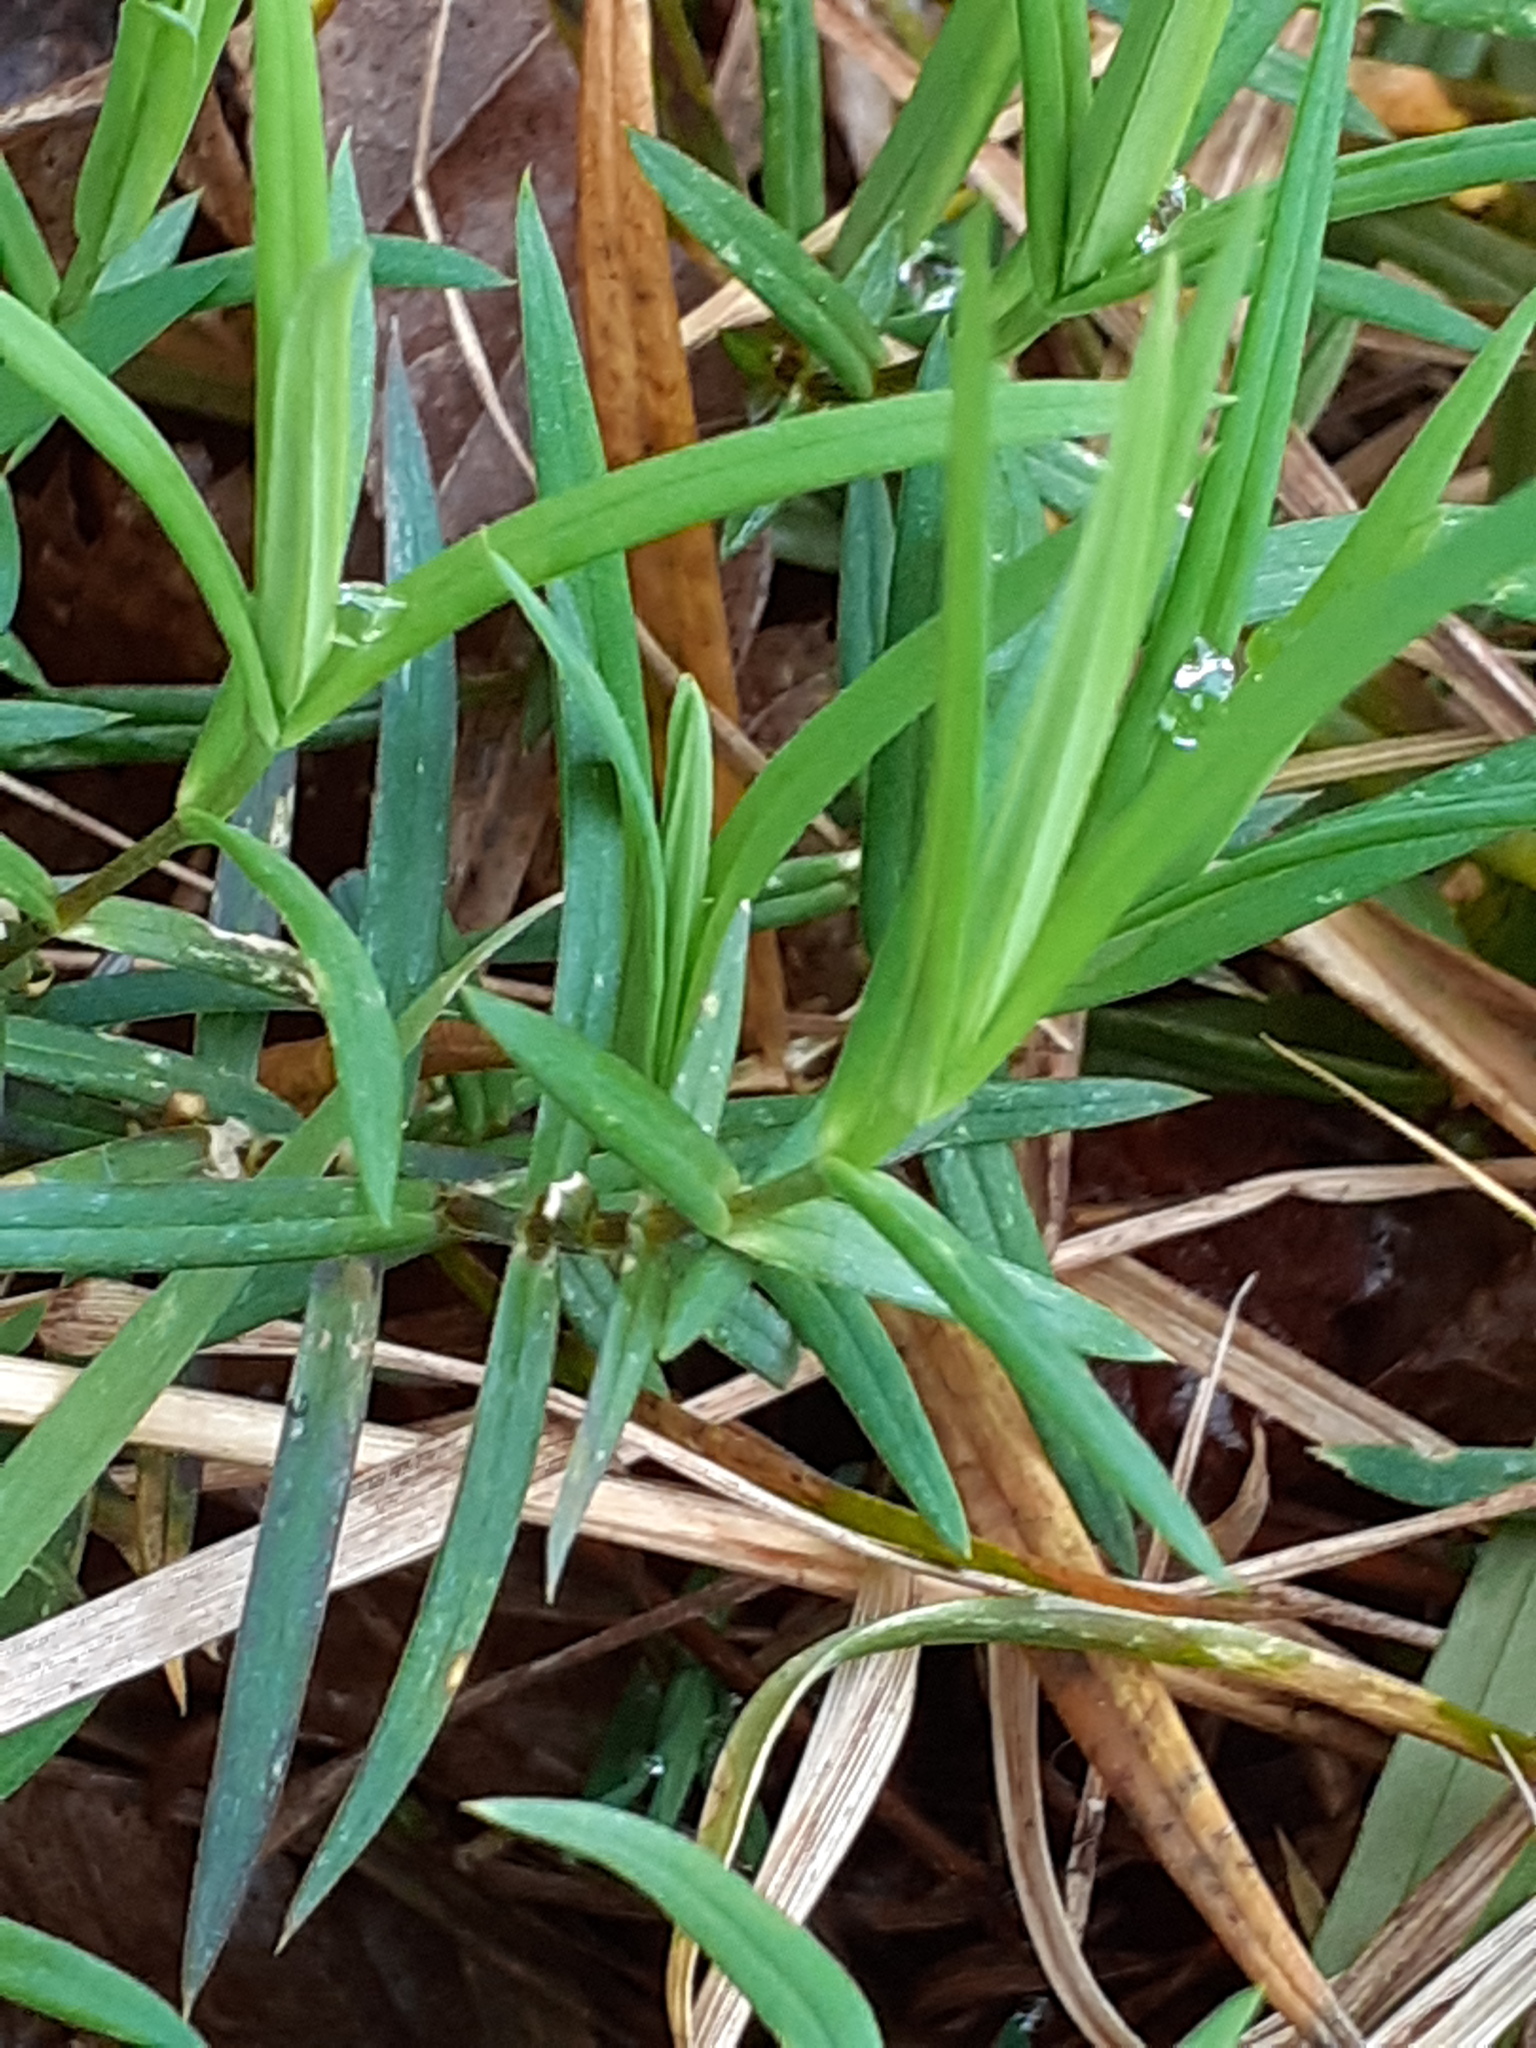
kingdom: Plantae
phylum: Tracheophyta
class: Magnoliopsida
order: Caryophyllales
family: Caryophyllaceae
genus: Rabelera
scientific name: Rabelera holostea
